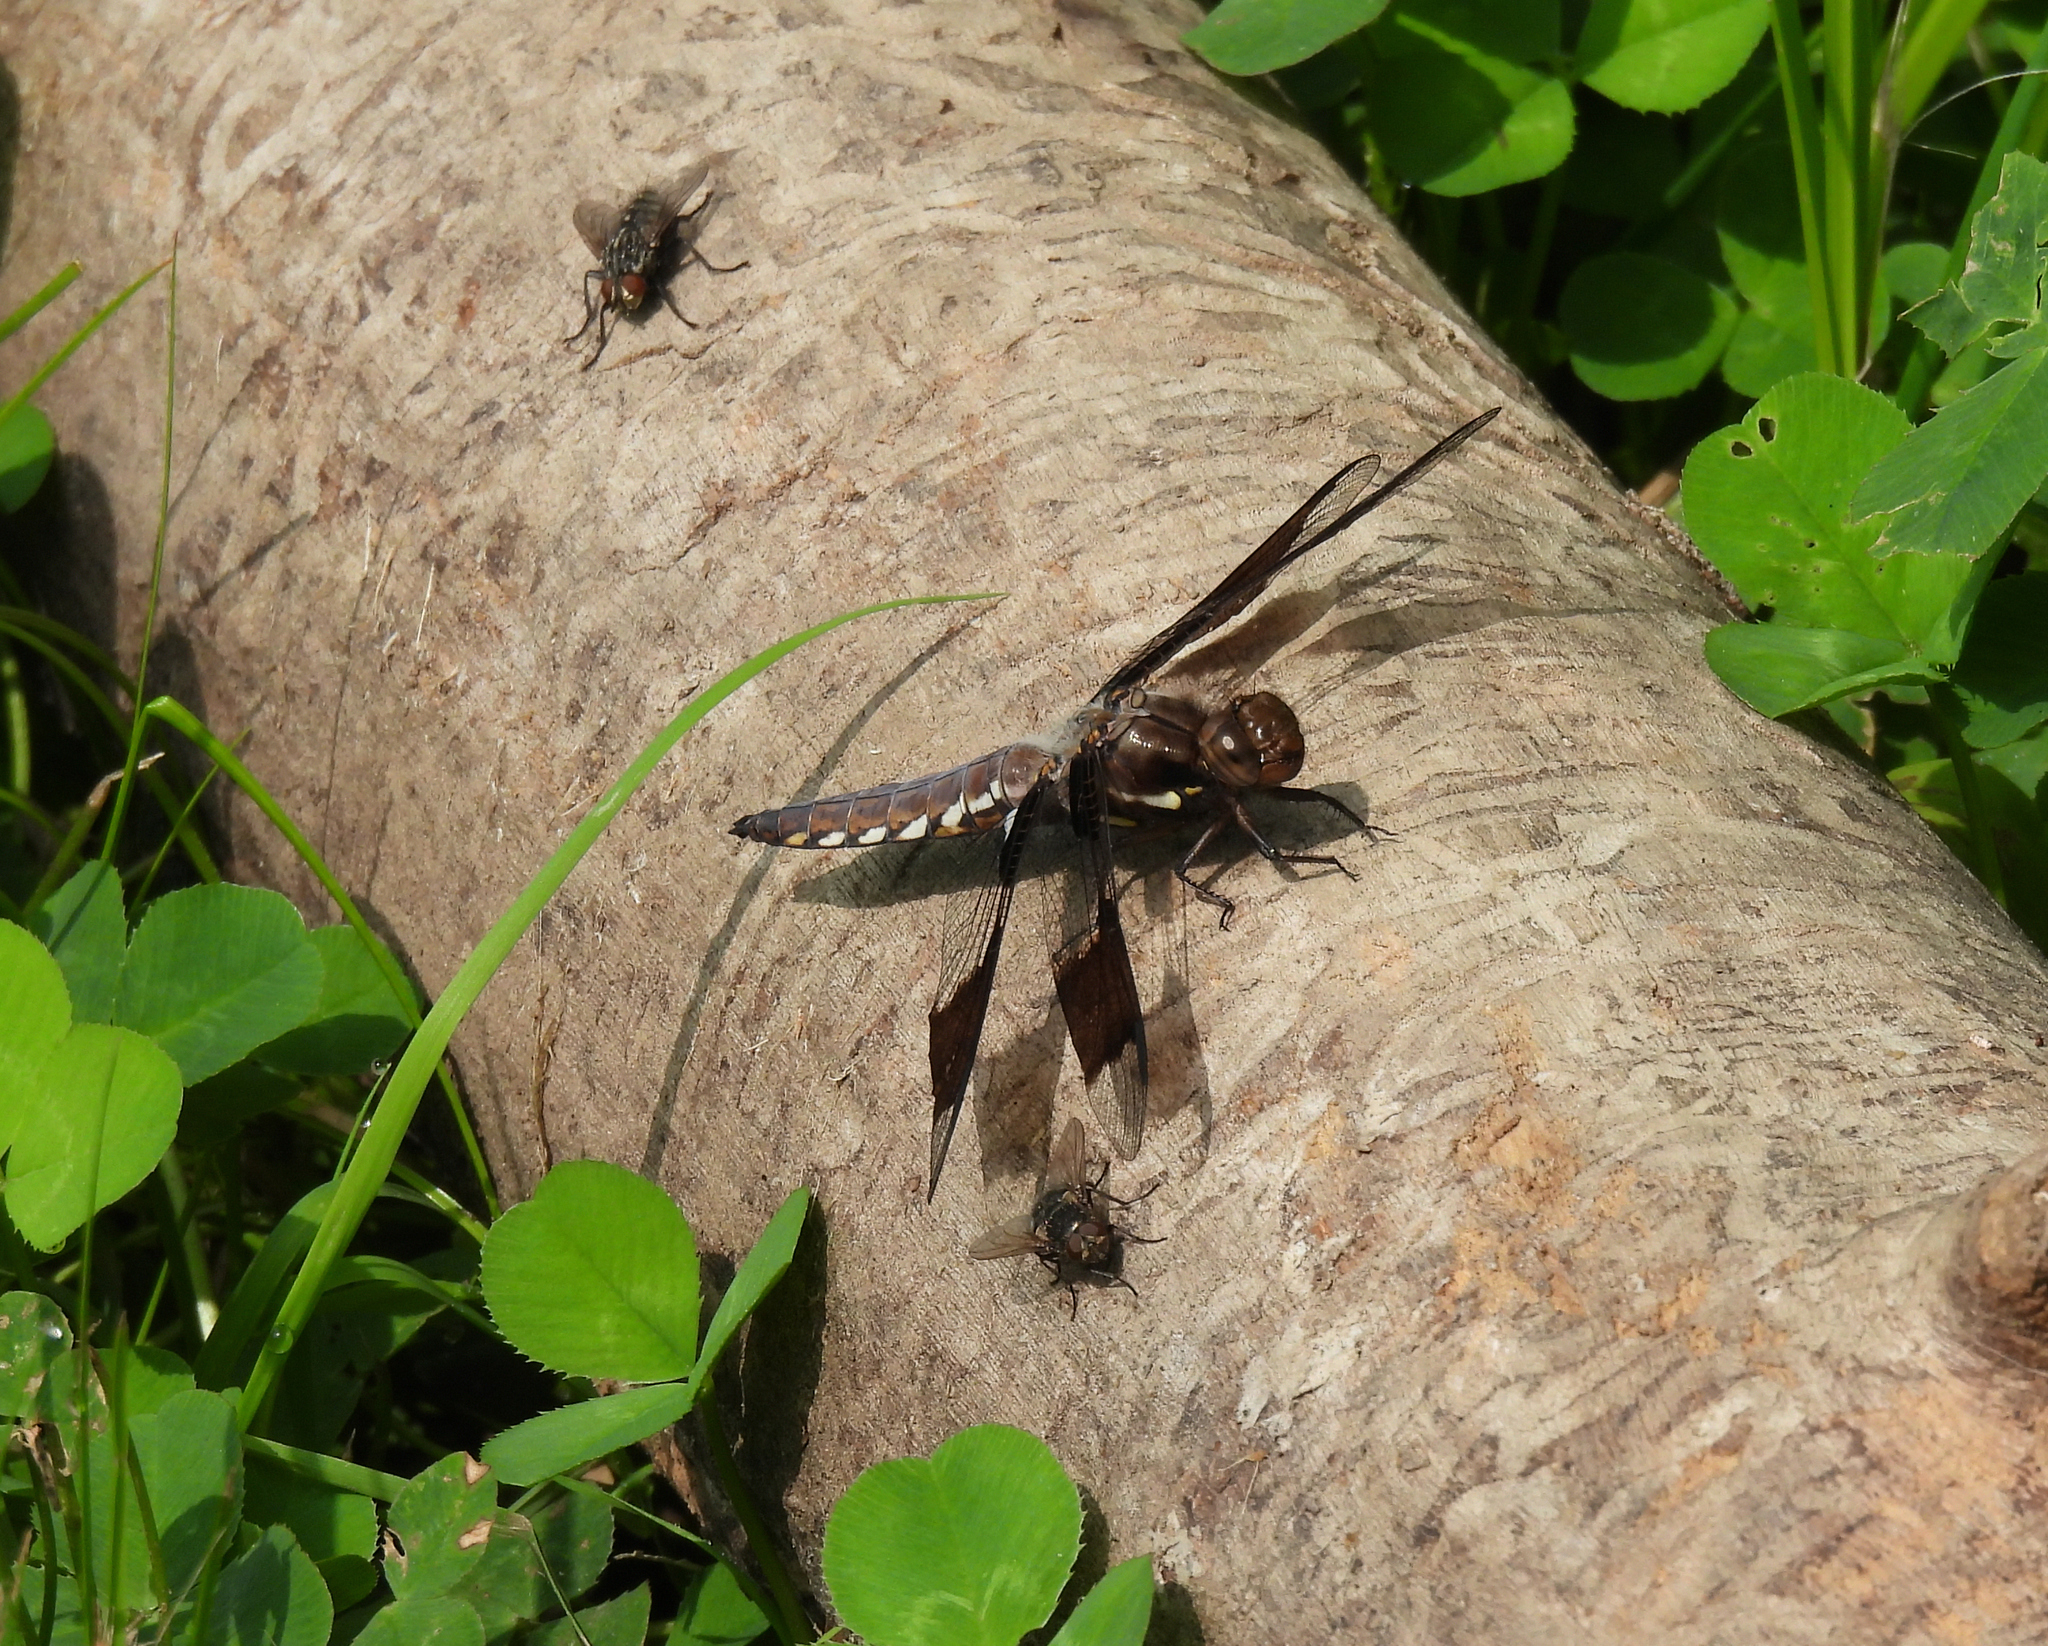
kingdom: Animalia
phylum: Arthropoda
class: Insecta
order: Odonata
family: Libellulidae
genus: Plathemis
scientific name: Plathemis lydia
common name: Common whitetail
